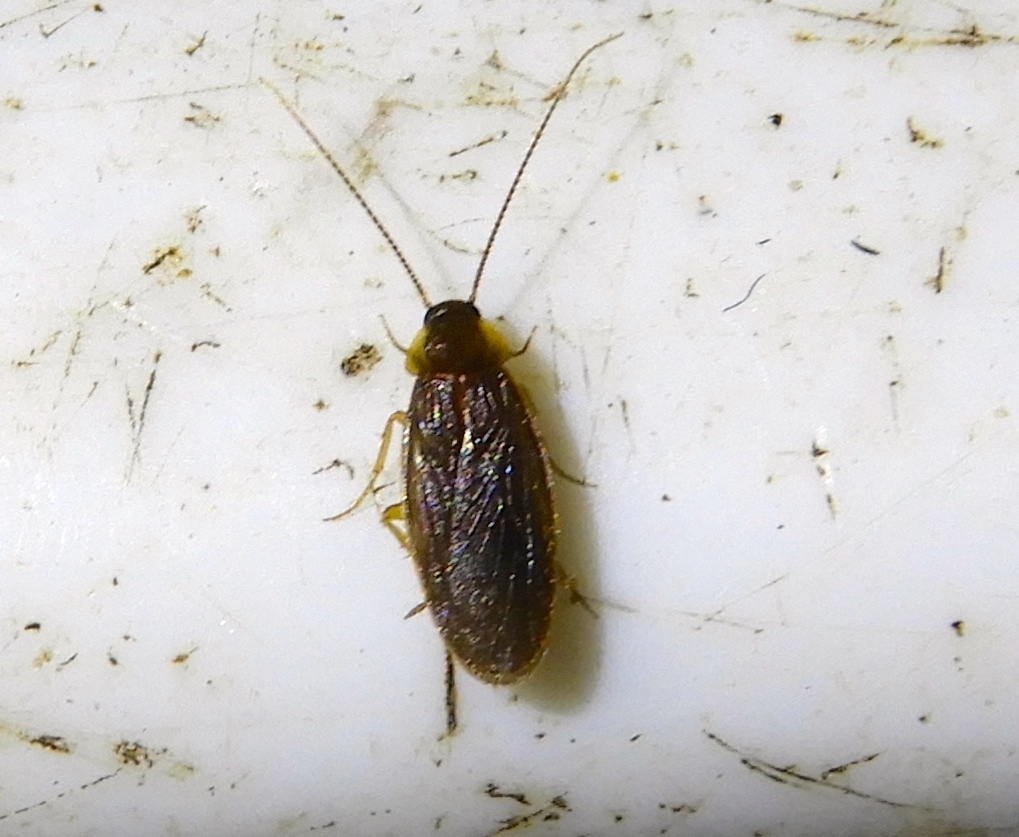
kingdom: Animalia
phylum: Arthropoda
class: Insecta
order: Blattodea
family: Corydiidae
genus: Compsodes
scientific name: Compsodes schwarzi
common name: Schwarz's hooded cockroach
